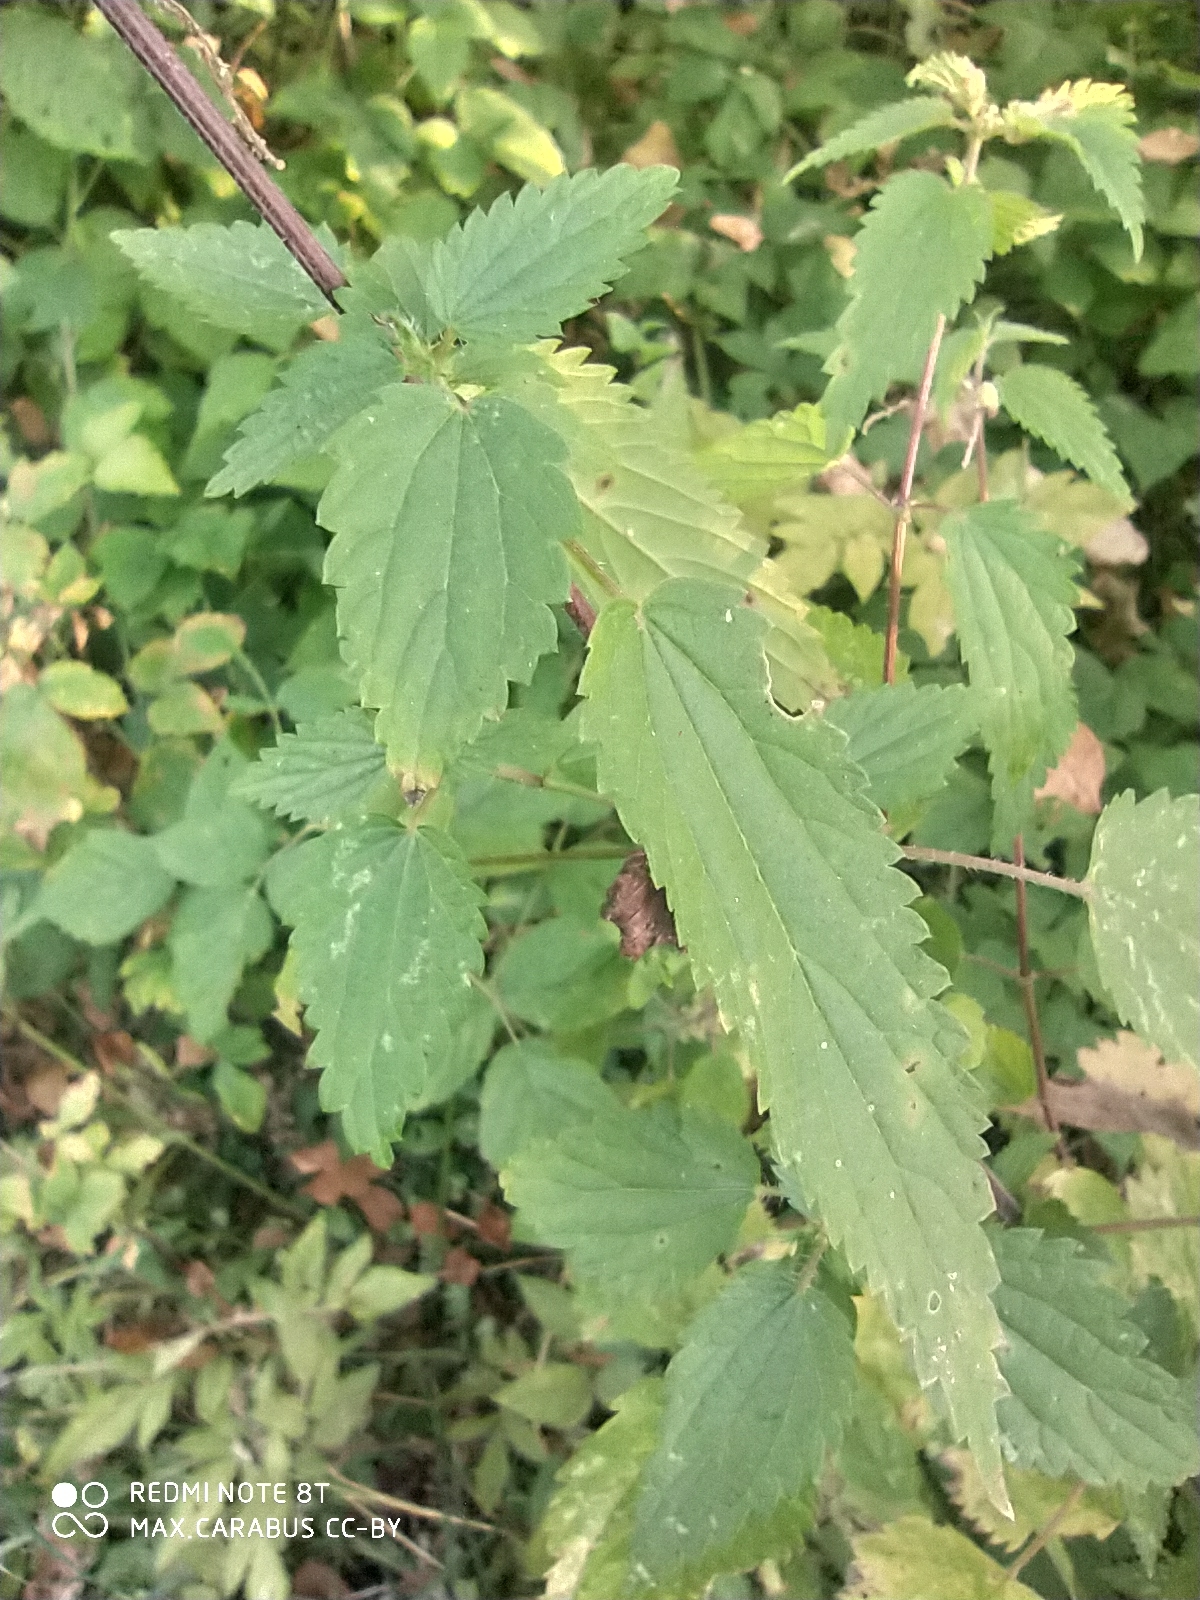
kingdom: Plantae
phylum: Tracheophyta
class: Magnoliopsida
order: Rosales
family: Urticaceae
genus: Urtica
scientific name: Urtica dioica
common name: Common nettle
